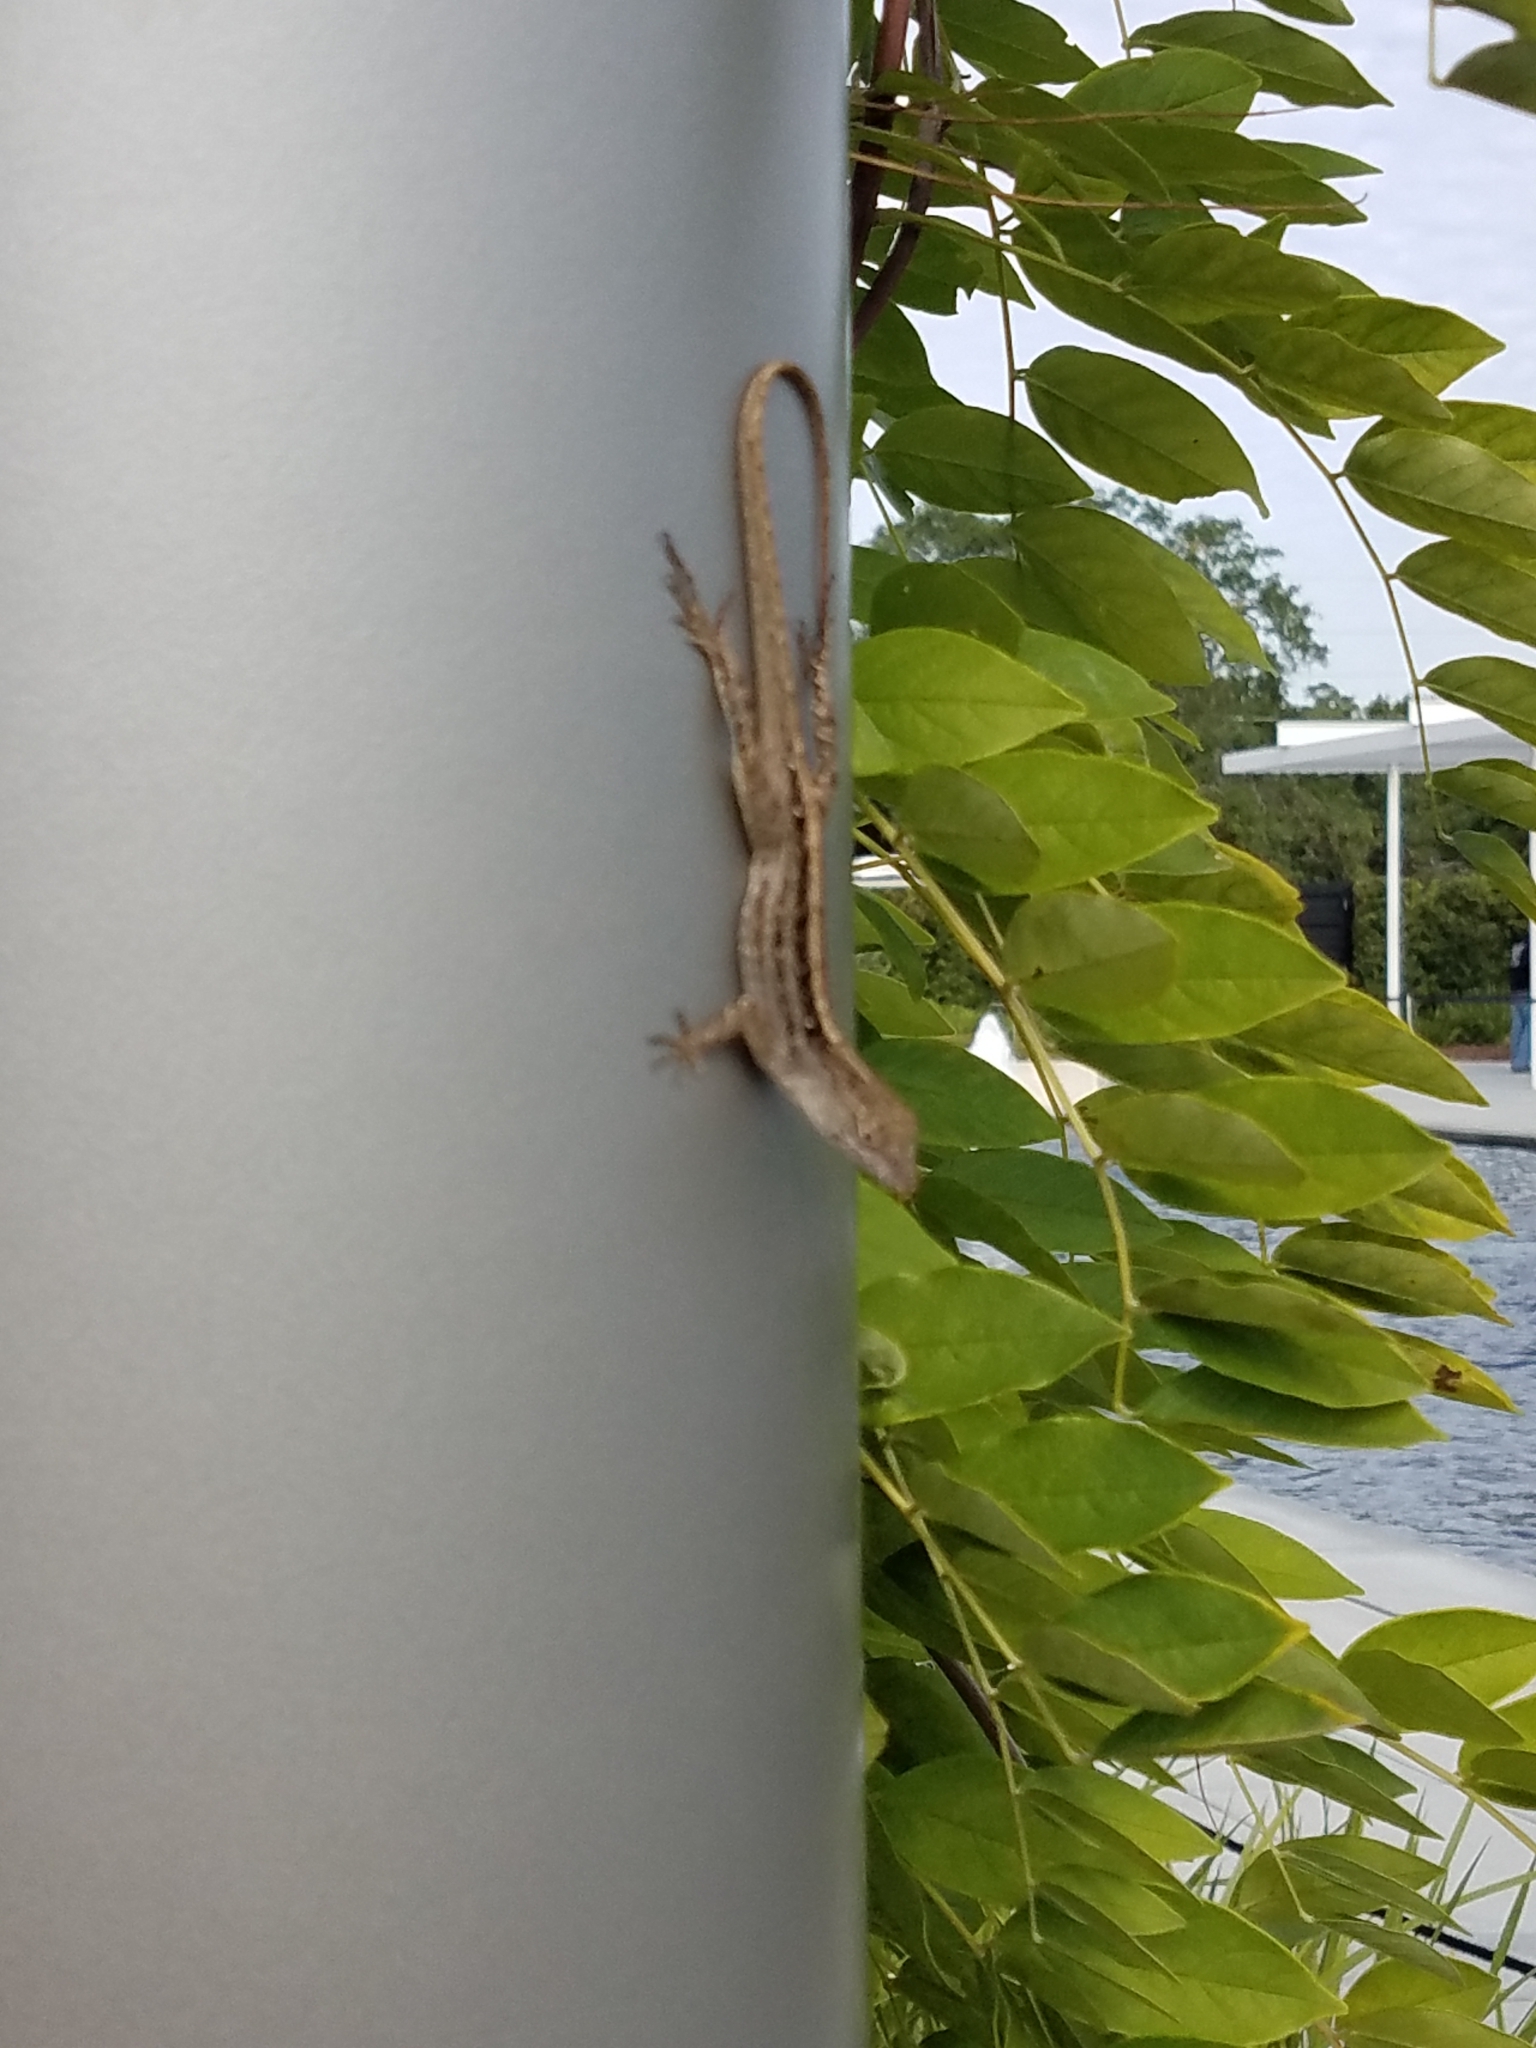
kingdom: Animalia
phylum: Chordata
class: Squamata
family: Dactyloidae
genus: Anolis
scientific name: Anolis sagrei
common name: Brown anole
